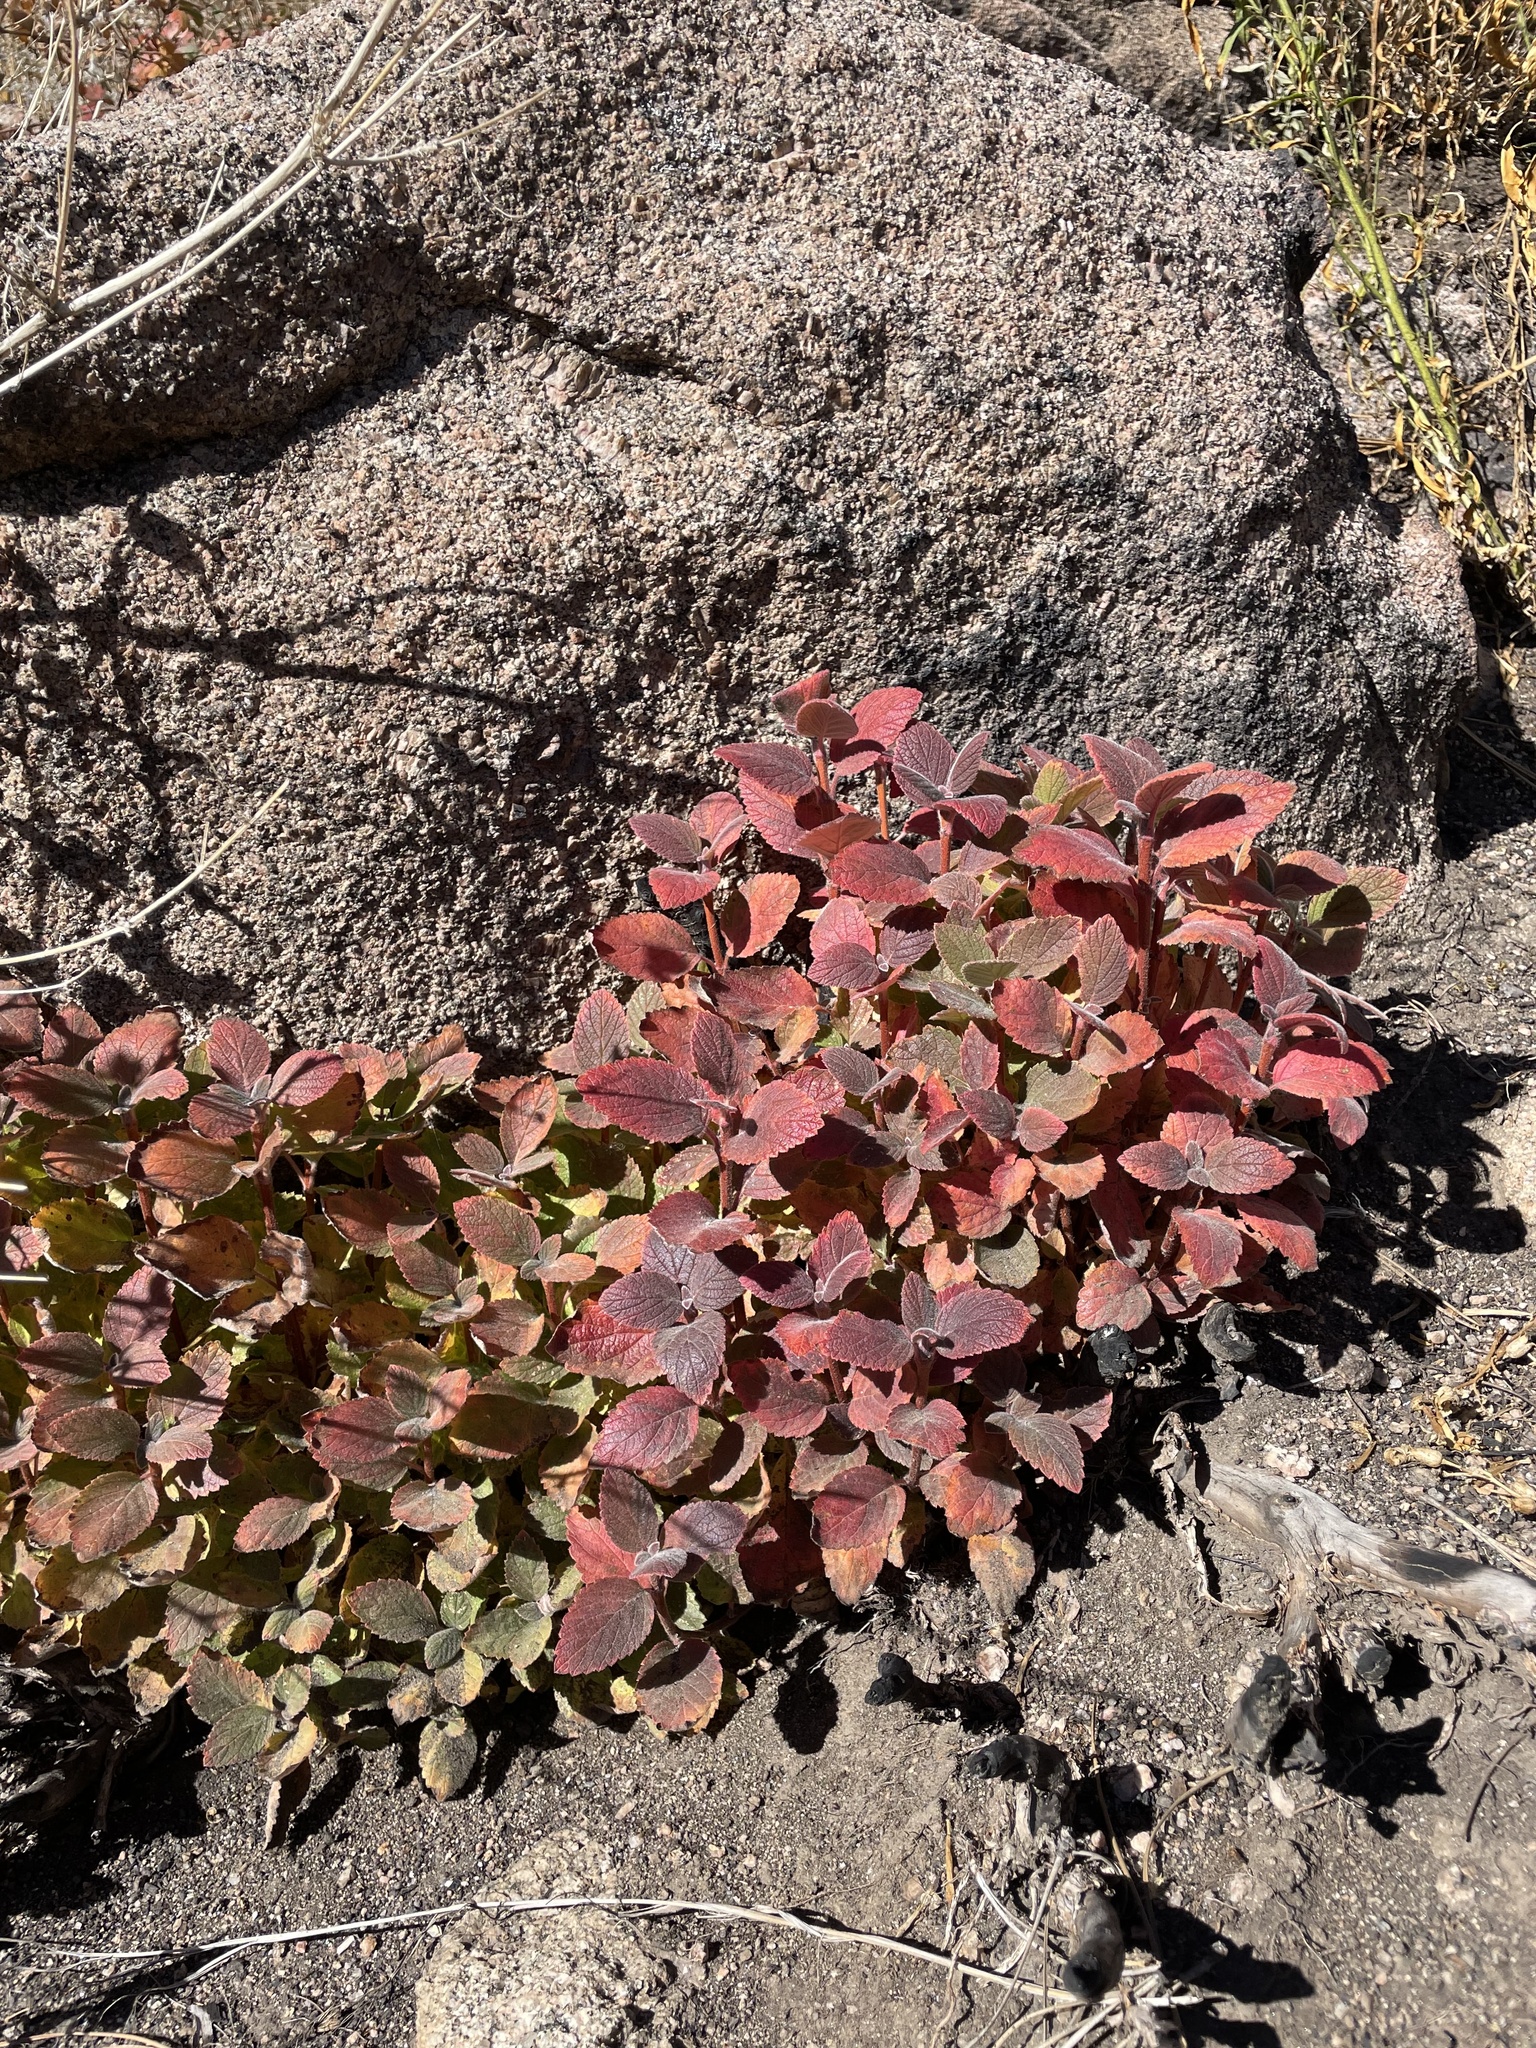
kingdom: Plantae
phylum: Tracheophyta
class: Magnoliopsida
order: Cornales
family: Hydrangeaceae
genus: Jamesia
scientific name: Jamesia americana
